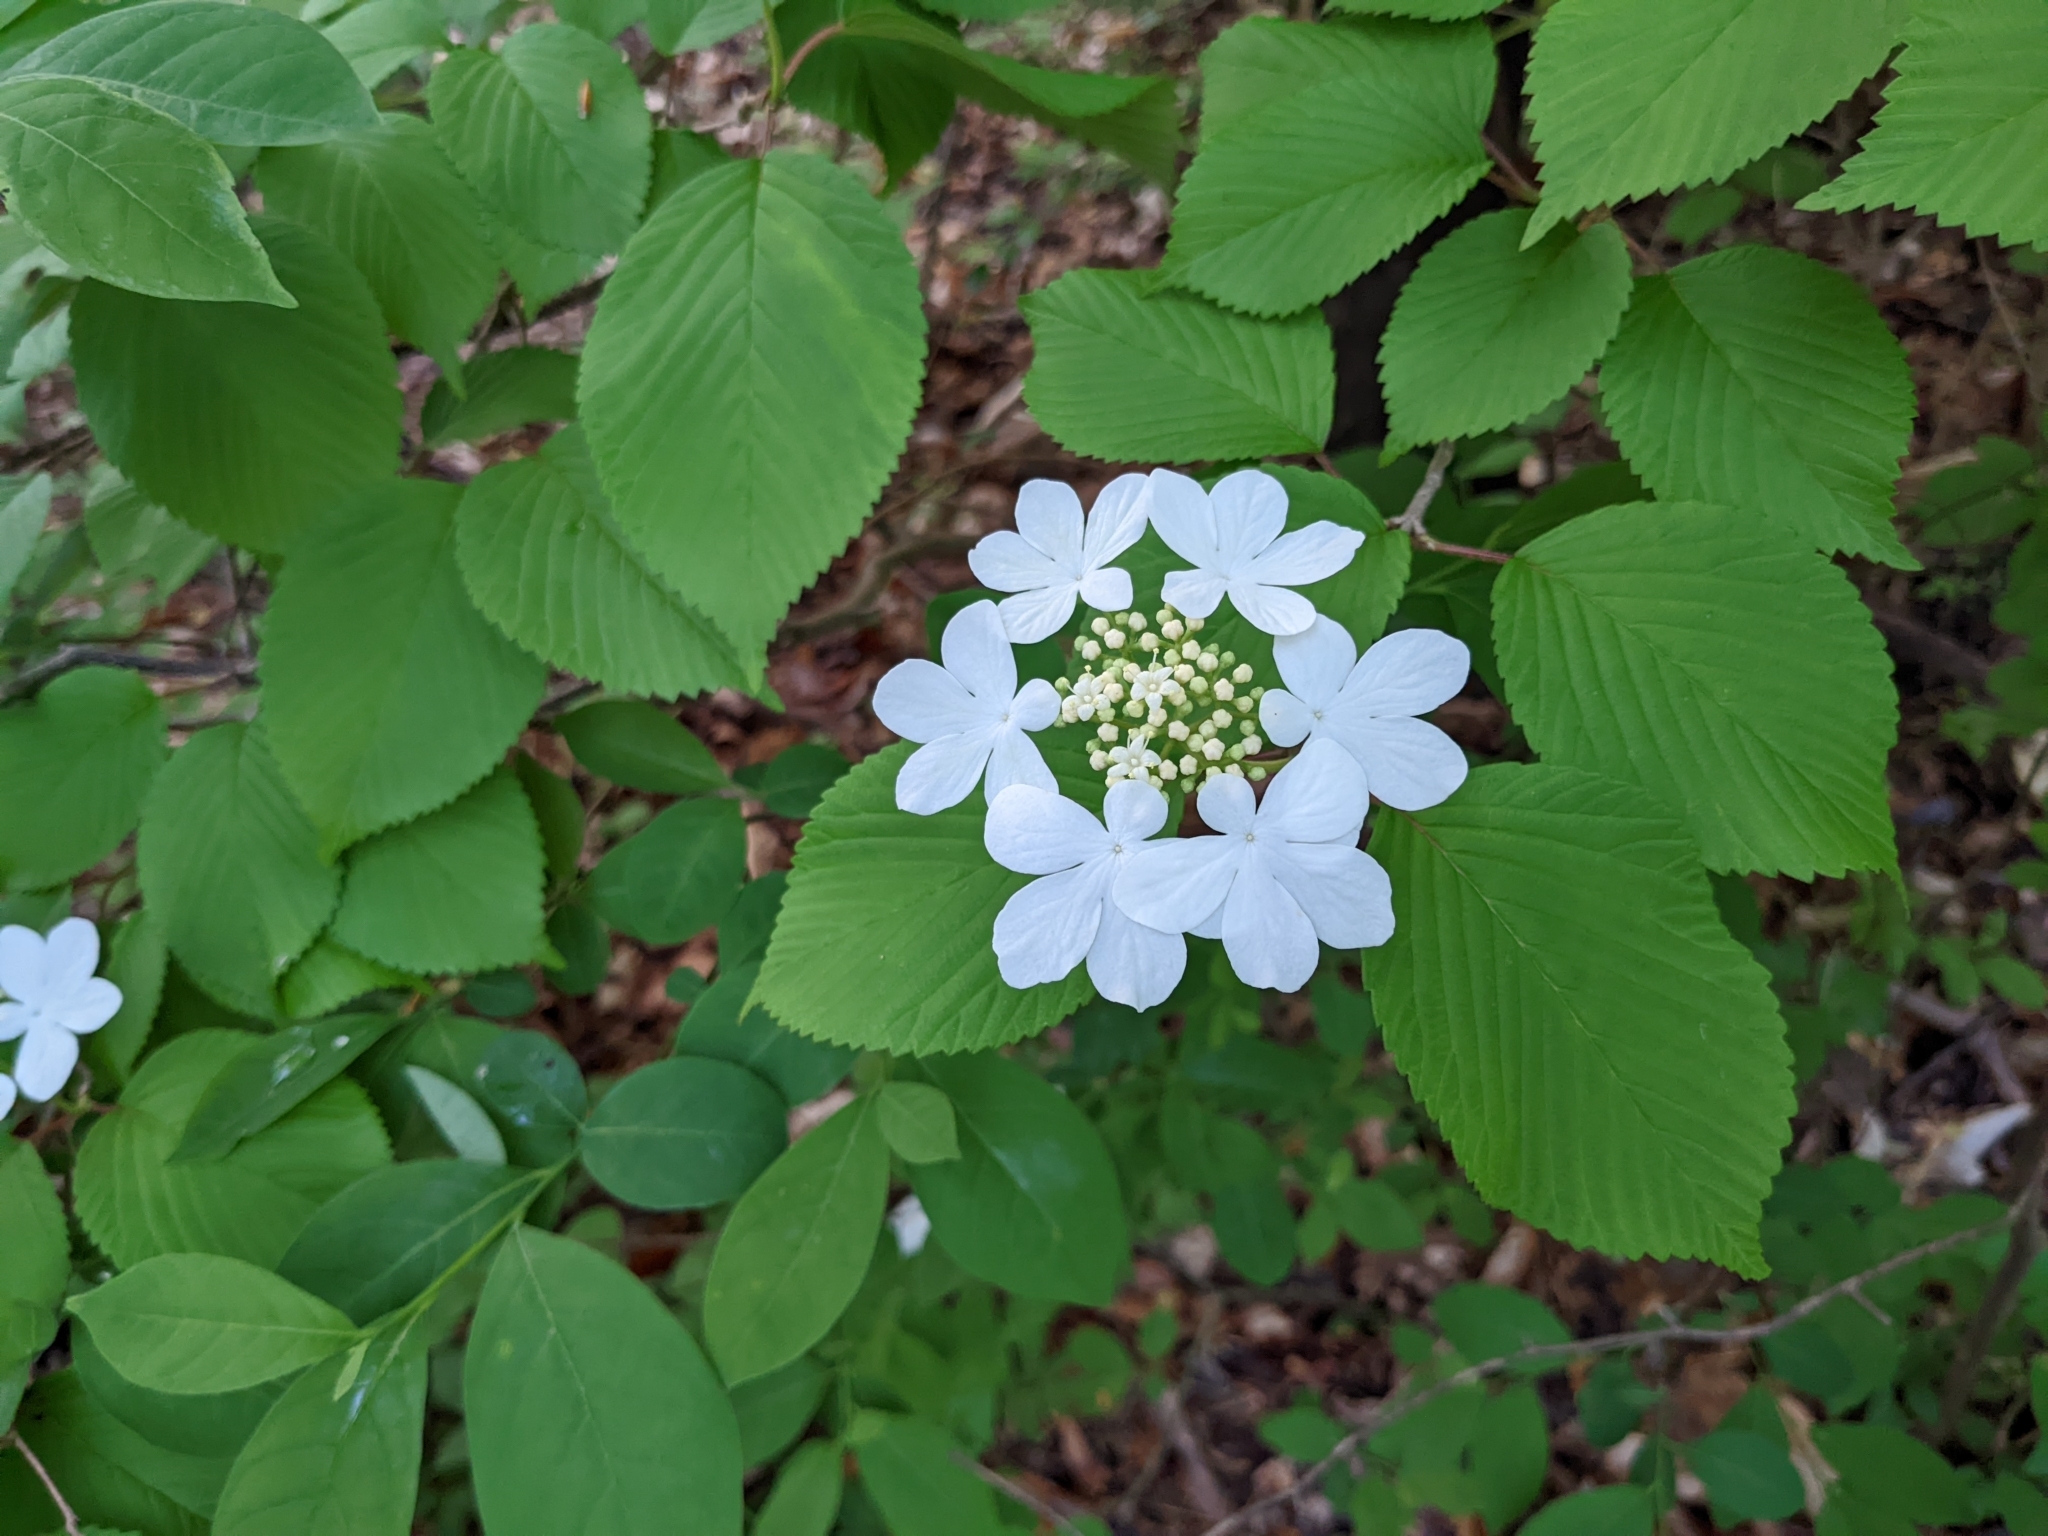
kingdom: Plantae
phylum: Tracheophyta
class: Magnoliopsida
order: Dipsacales
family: Viburnaceae
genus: Viburnum
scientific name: Viburnum plicatum
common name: Japanese snowball
